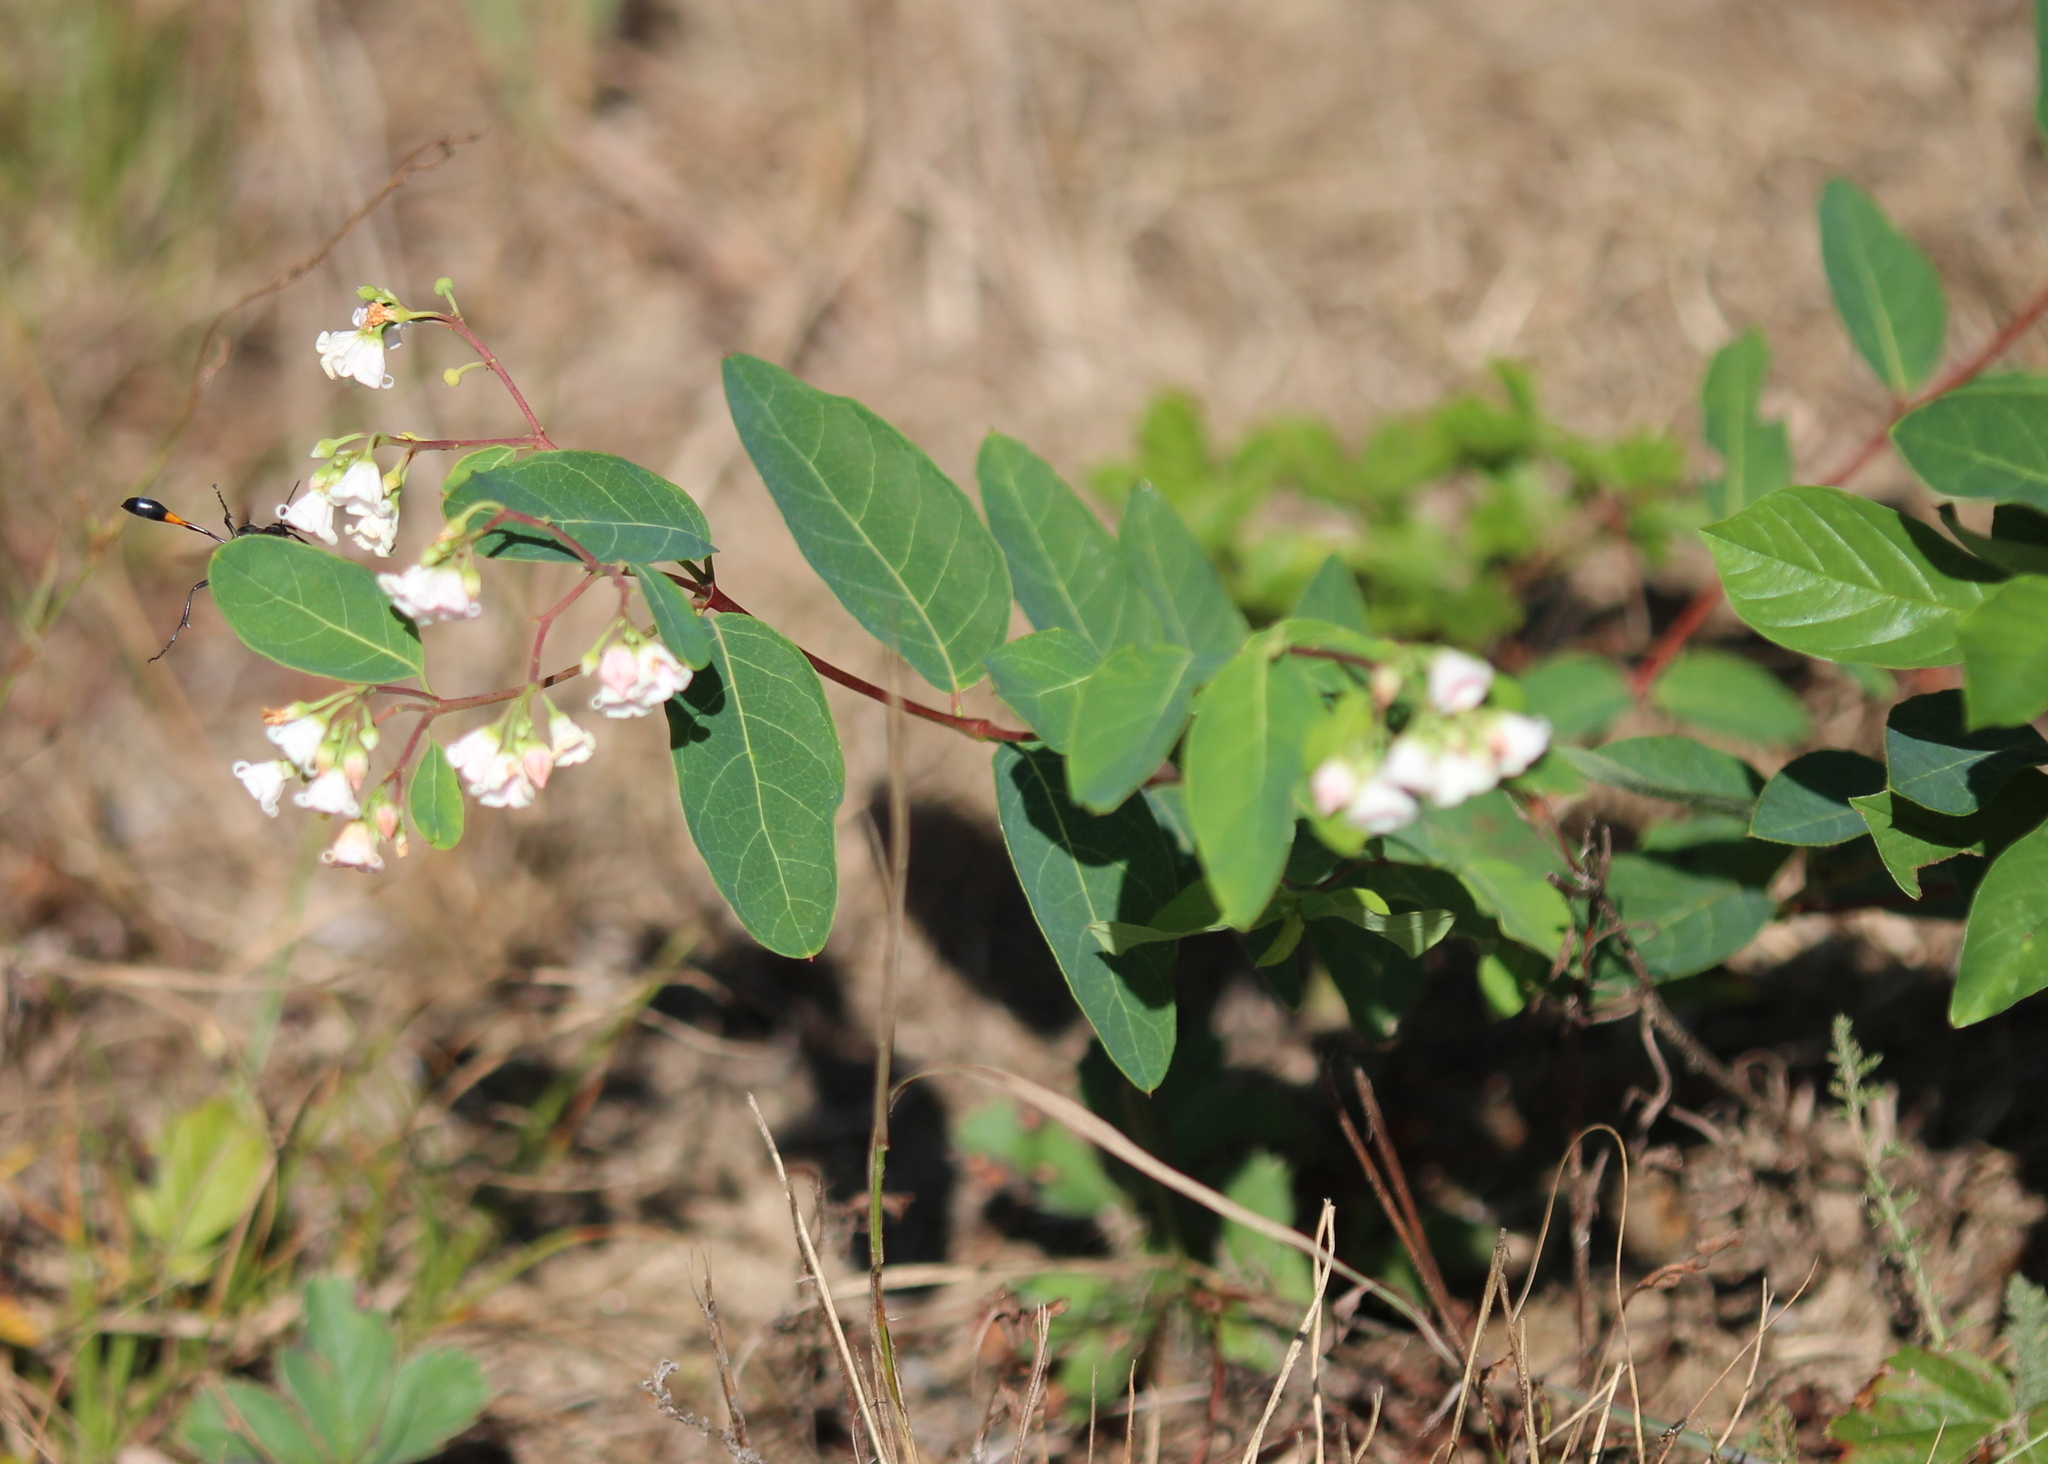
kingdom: Plantae
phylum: Tracheophyta
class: Magnoliopsida
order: Gentianales
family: Apocynaceae
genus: Apocynum
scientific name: Apocynum androsaemifolium
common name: Spreading dogbane
